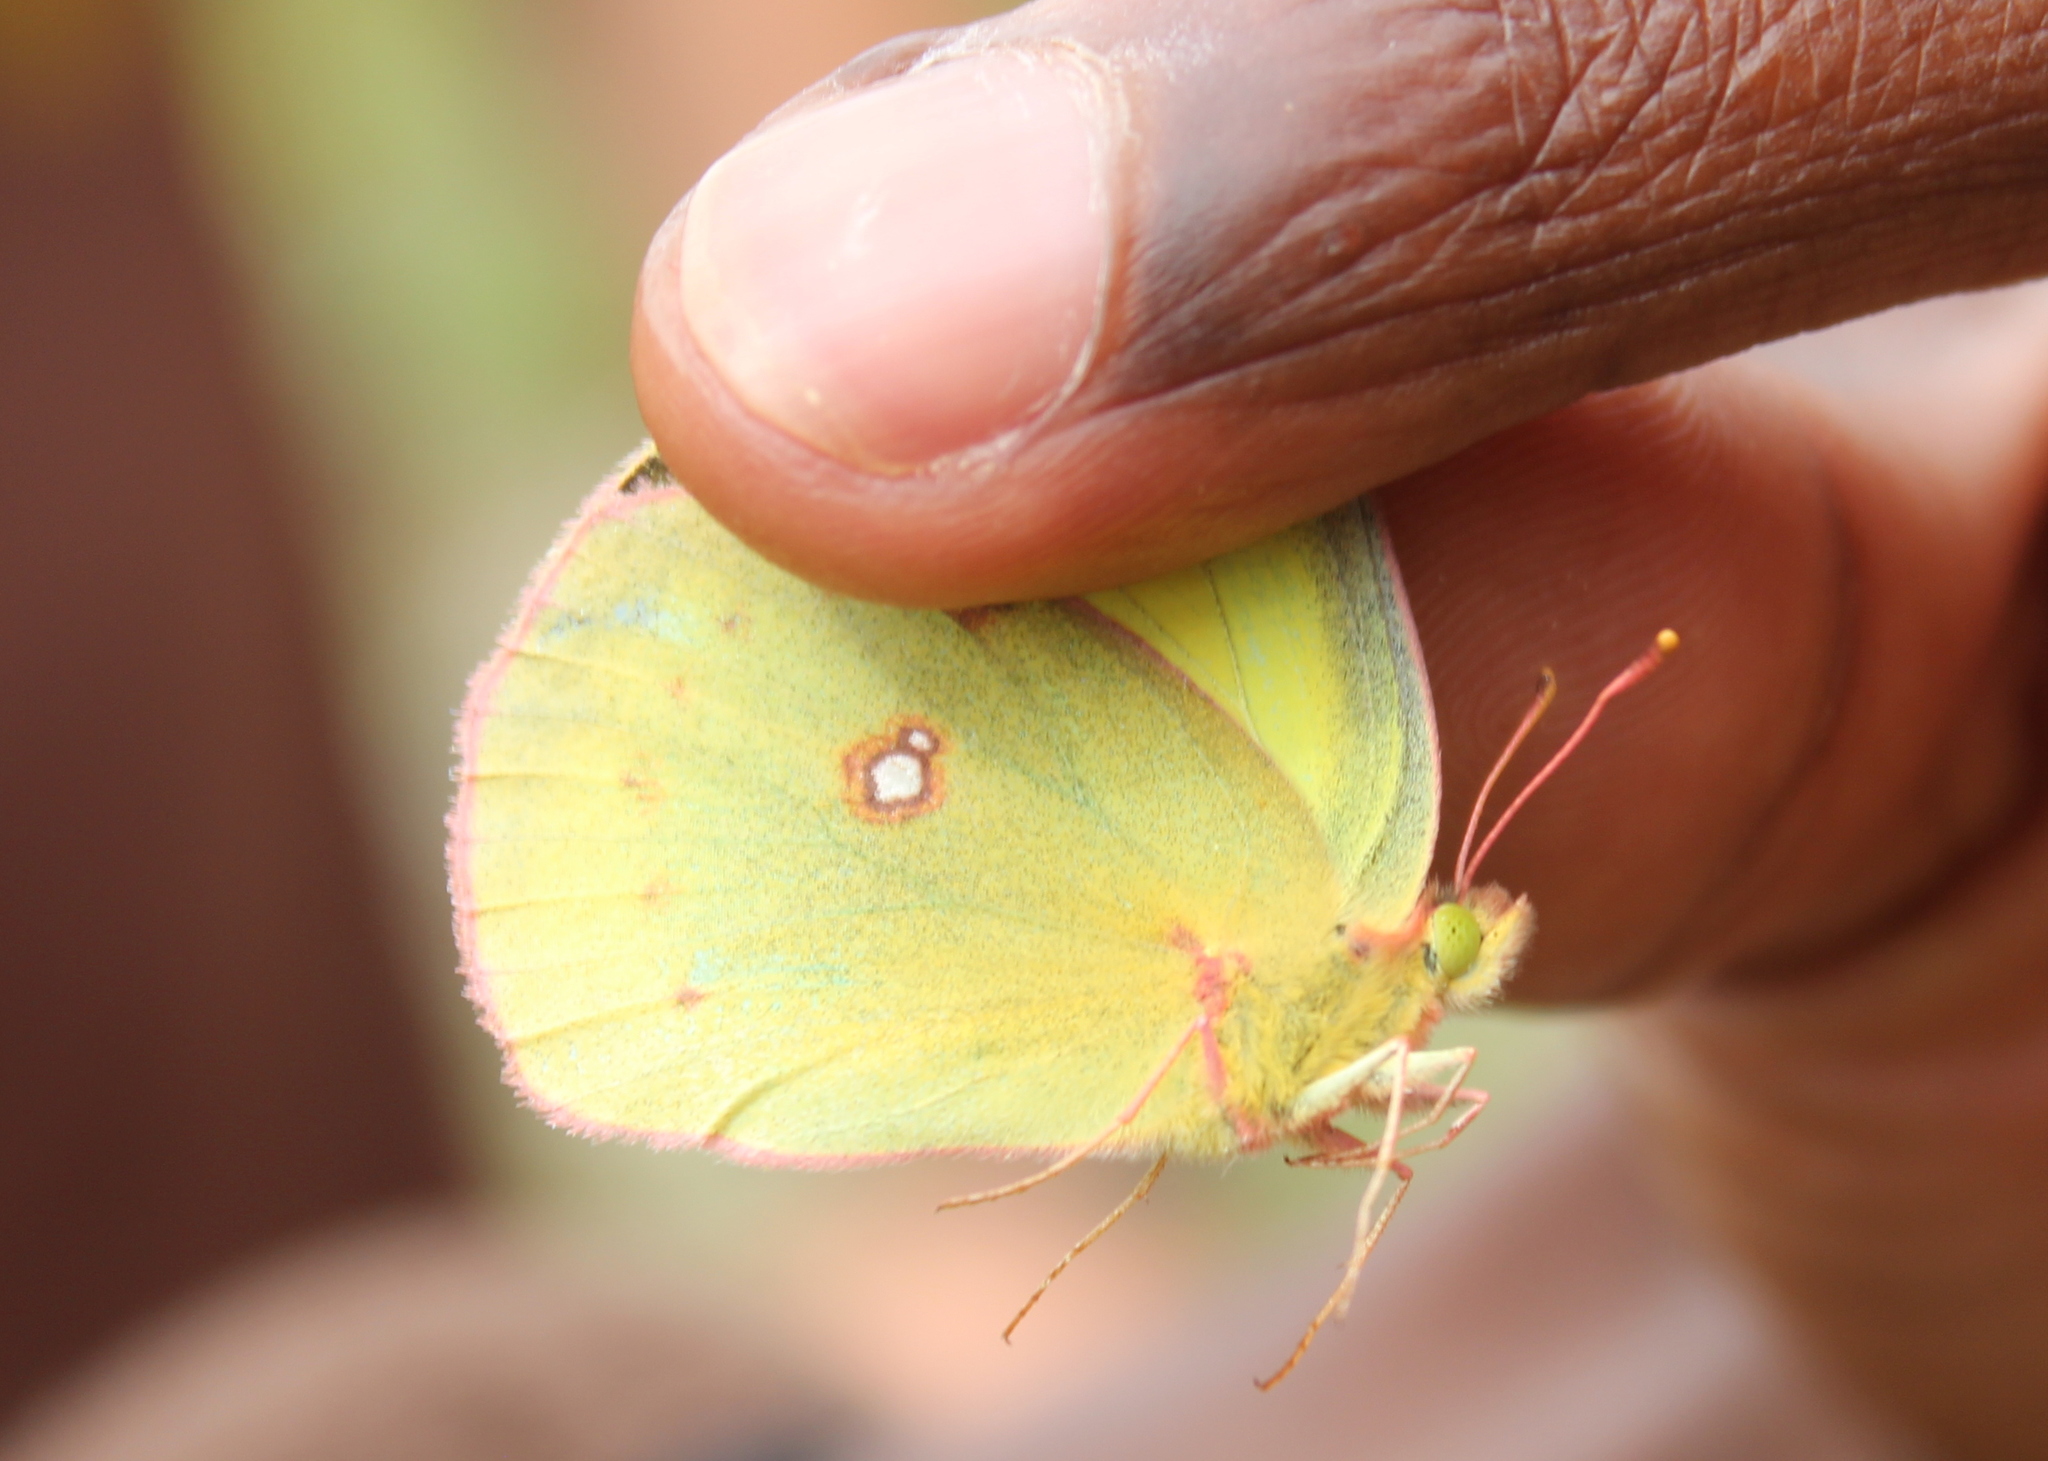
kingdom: Animalia
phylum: Arthropoda
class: Insecta
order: Lepidoptera
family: Pieridae
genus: Colias
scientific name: Colias philodice
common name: Clouded sulphur
